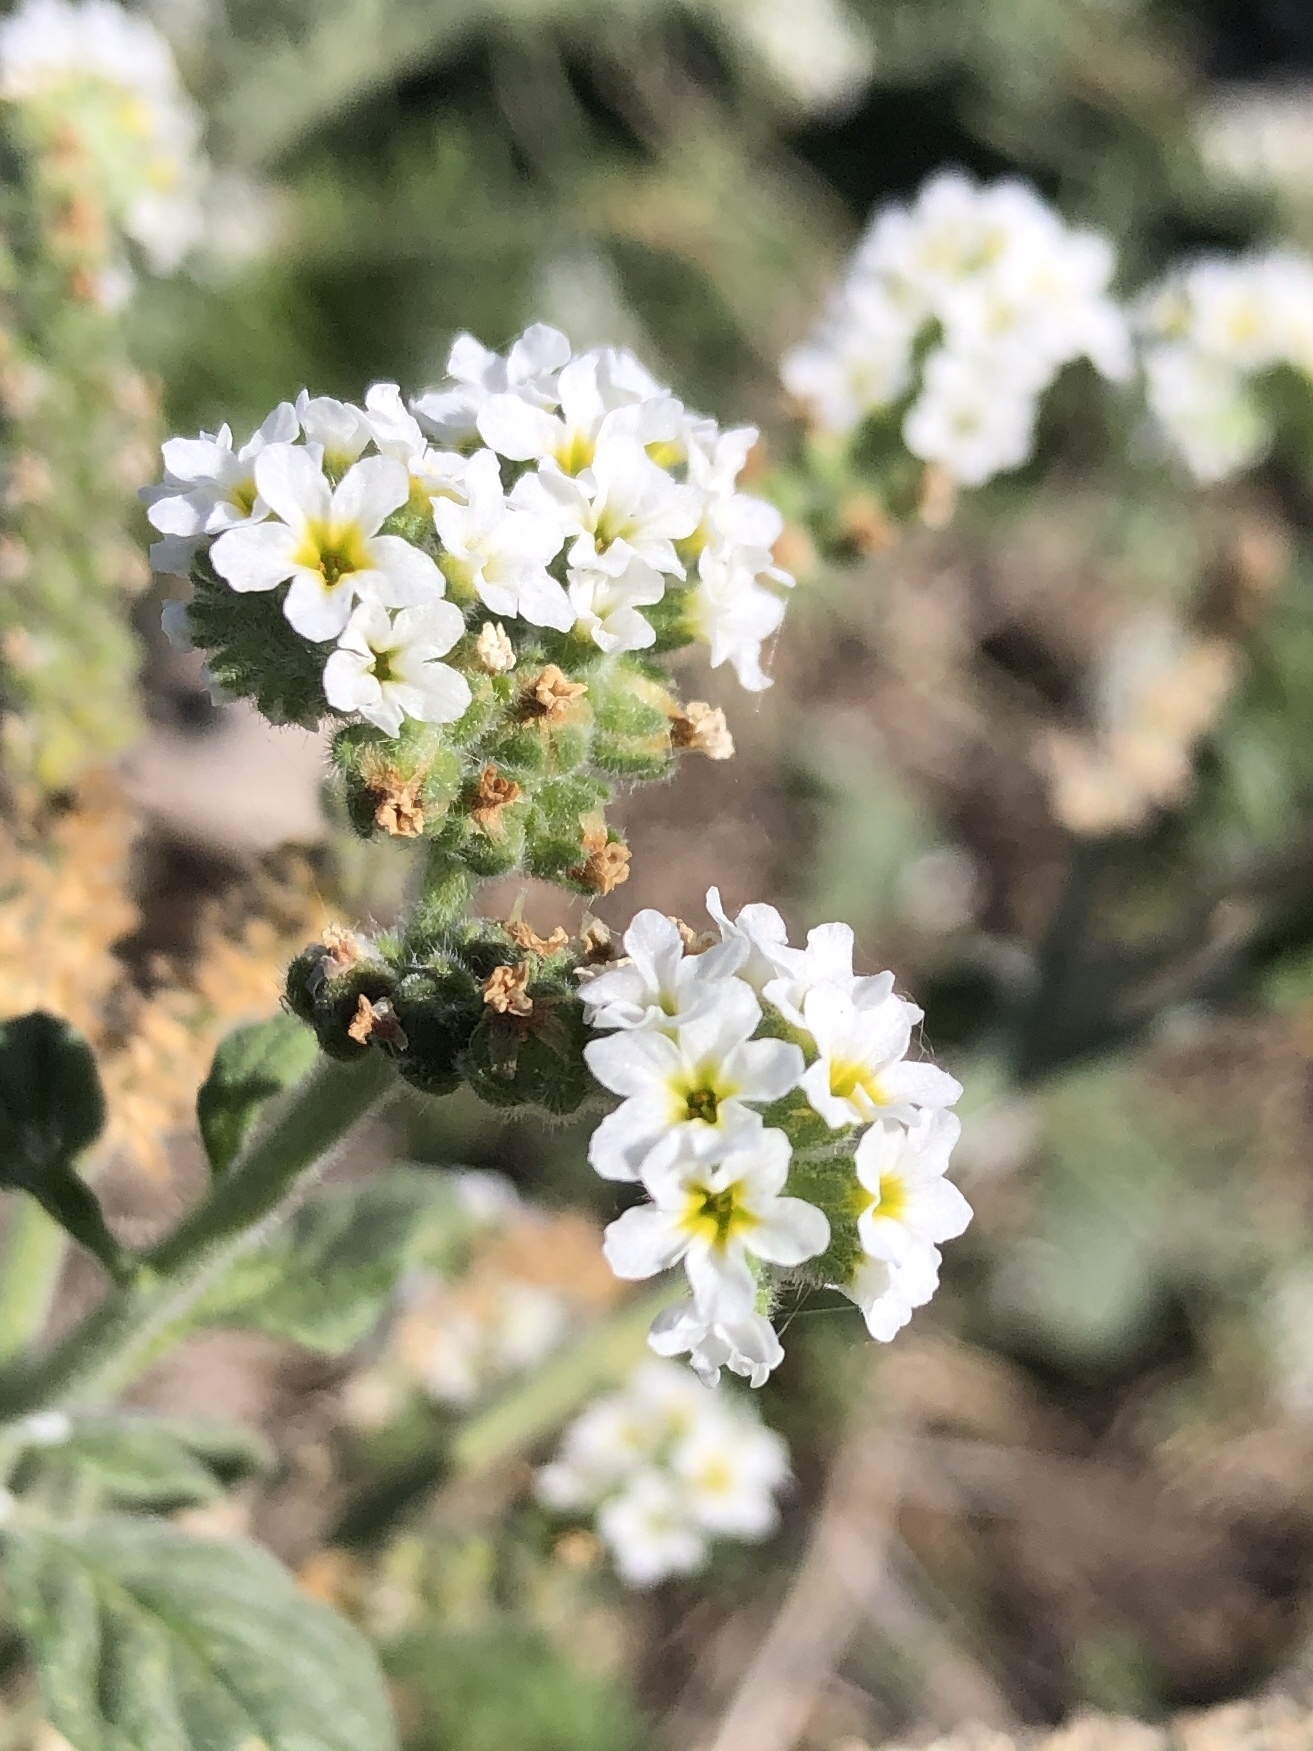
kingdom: Plantae
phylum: Tracheophyta
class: Magnoliopsida
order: Boraginales
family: Heliotropiaceae
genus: Heliotropium
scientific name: Heliotropium europaeum
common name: European heliotrope
